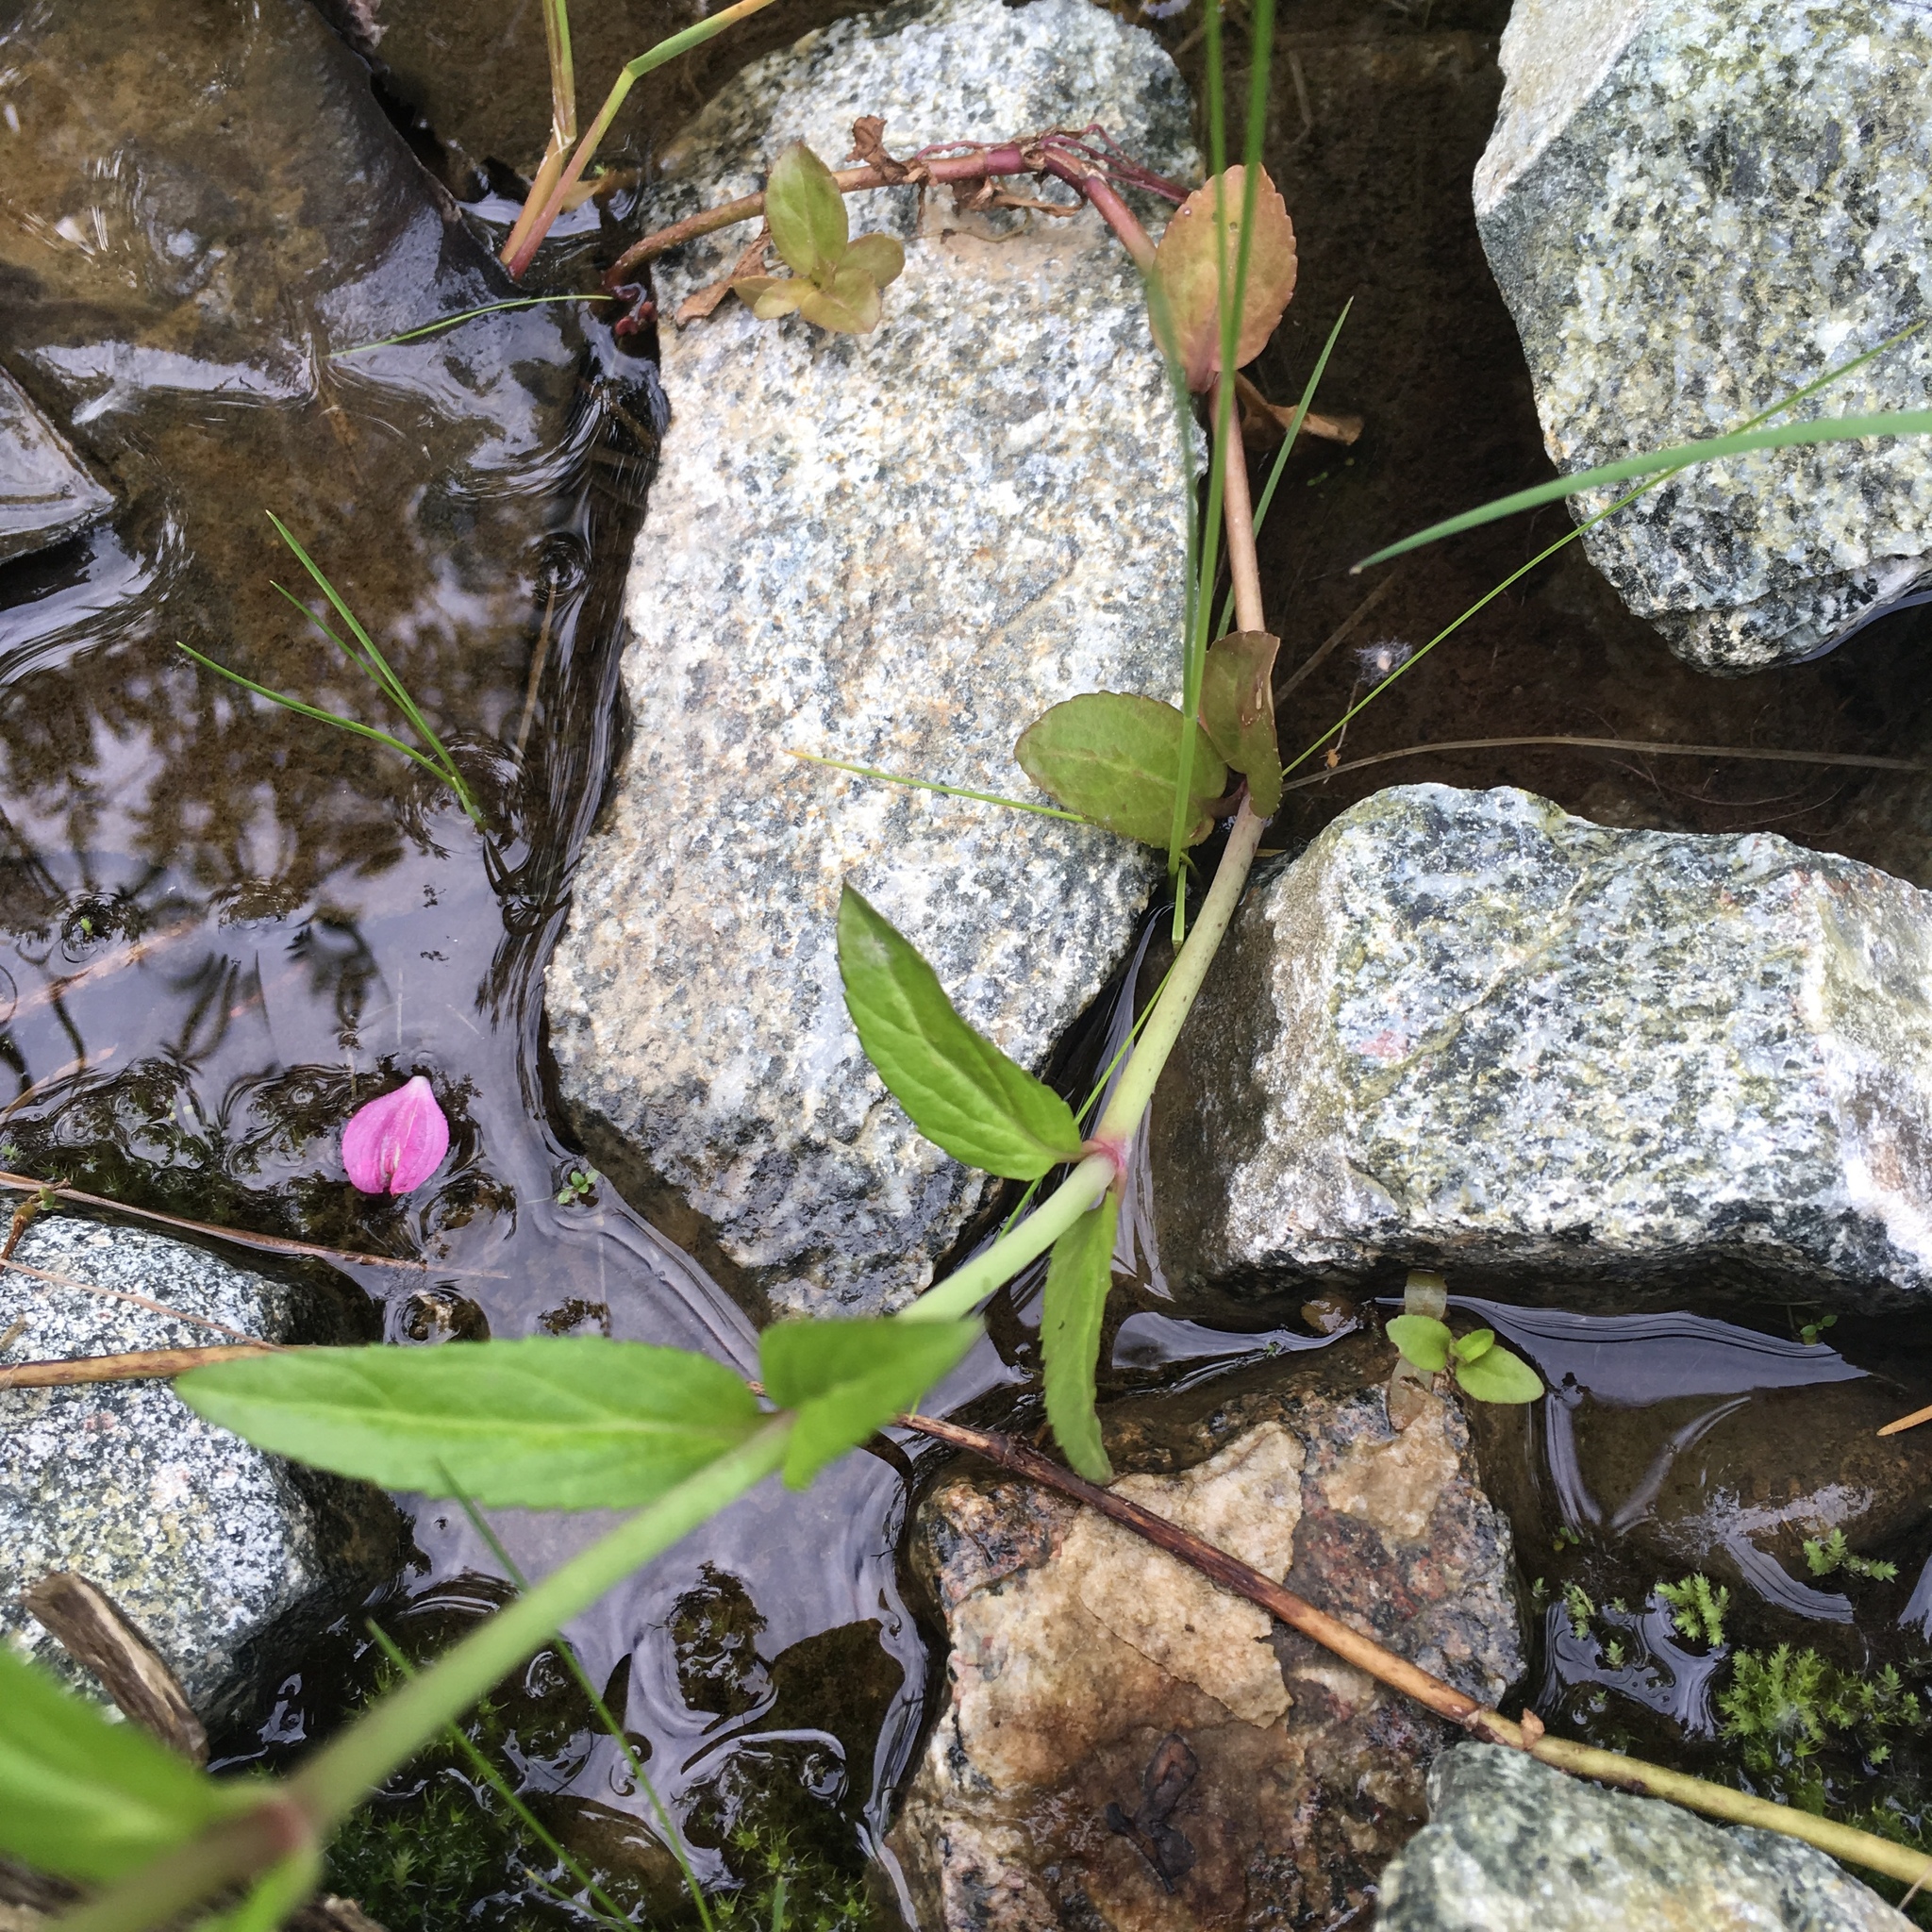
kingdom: Plantae
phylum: Tracheophyta
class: Magnoliopsida
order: Lamiales
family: Plantaginaceae
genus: Veronica
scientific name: Veronica americana
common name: American brooklime
